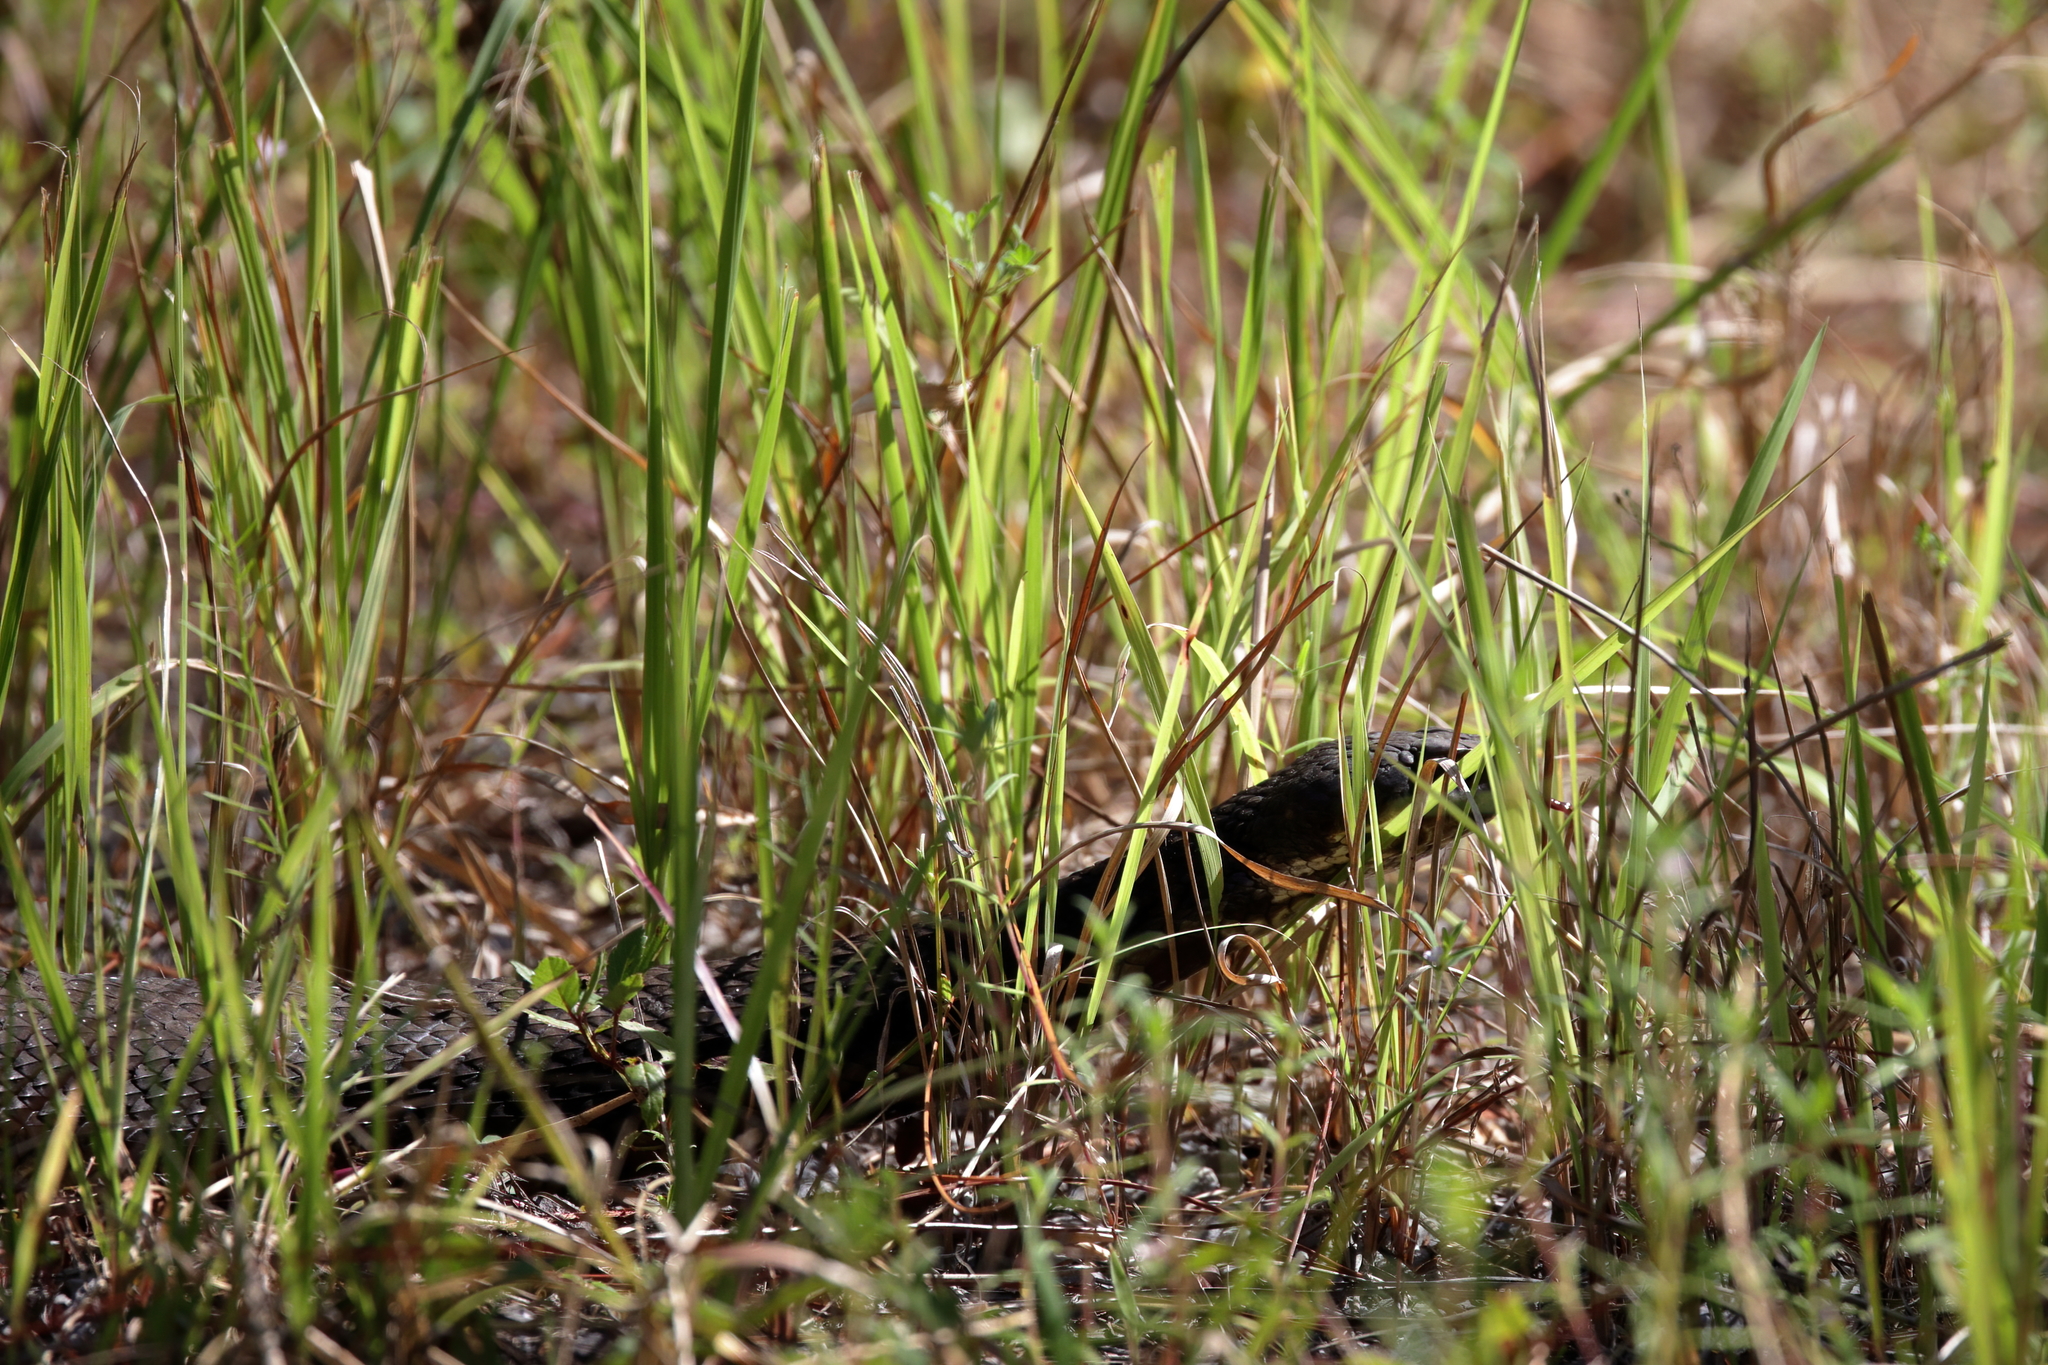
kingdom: Animalia
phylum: Chordata
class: Squamata
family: Viperidae
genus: Agkistrodon
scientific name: Agkistrodon piscivorus
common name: Cottonmouth
